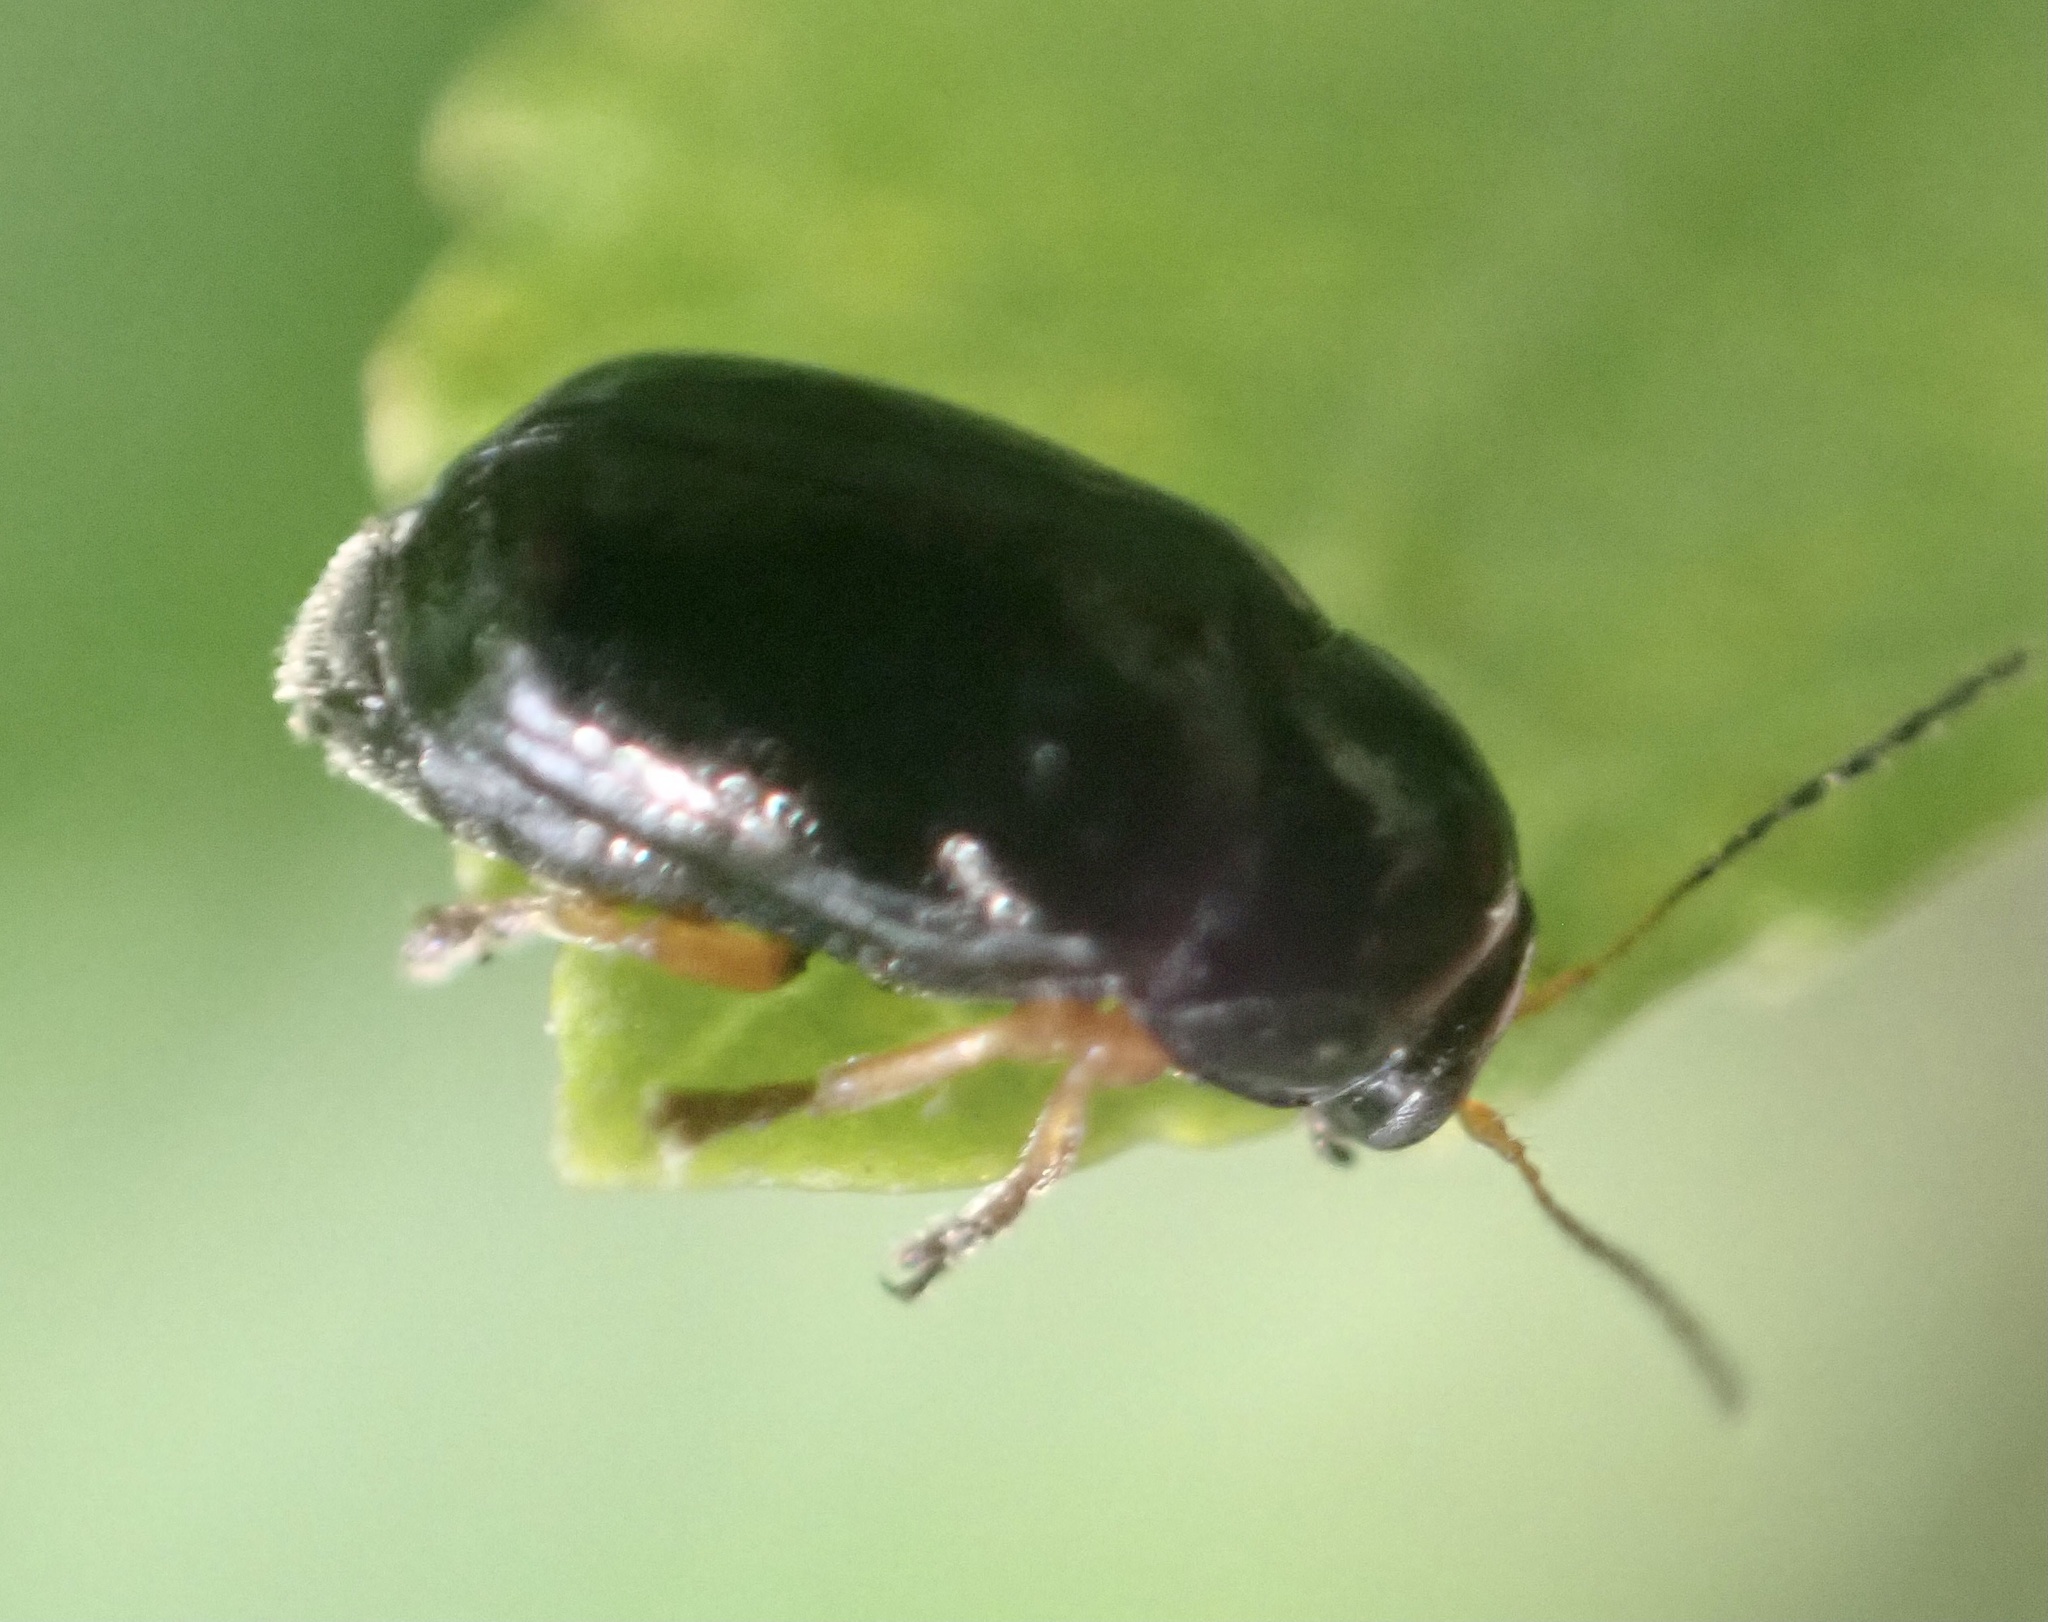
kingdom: Animalia
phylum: Arthropoda
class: Insecta
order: Coleoptera
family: Chrysomelidae
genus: Cryptocephalus
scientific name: Cryptocephalus ocellatus
